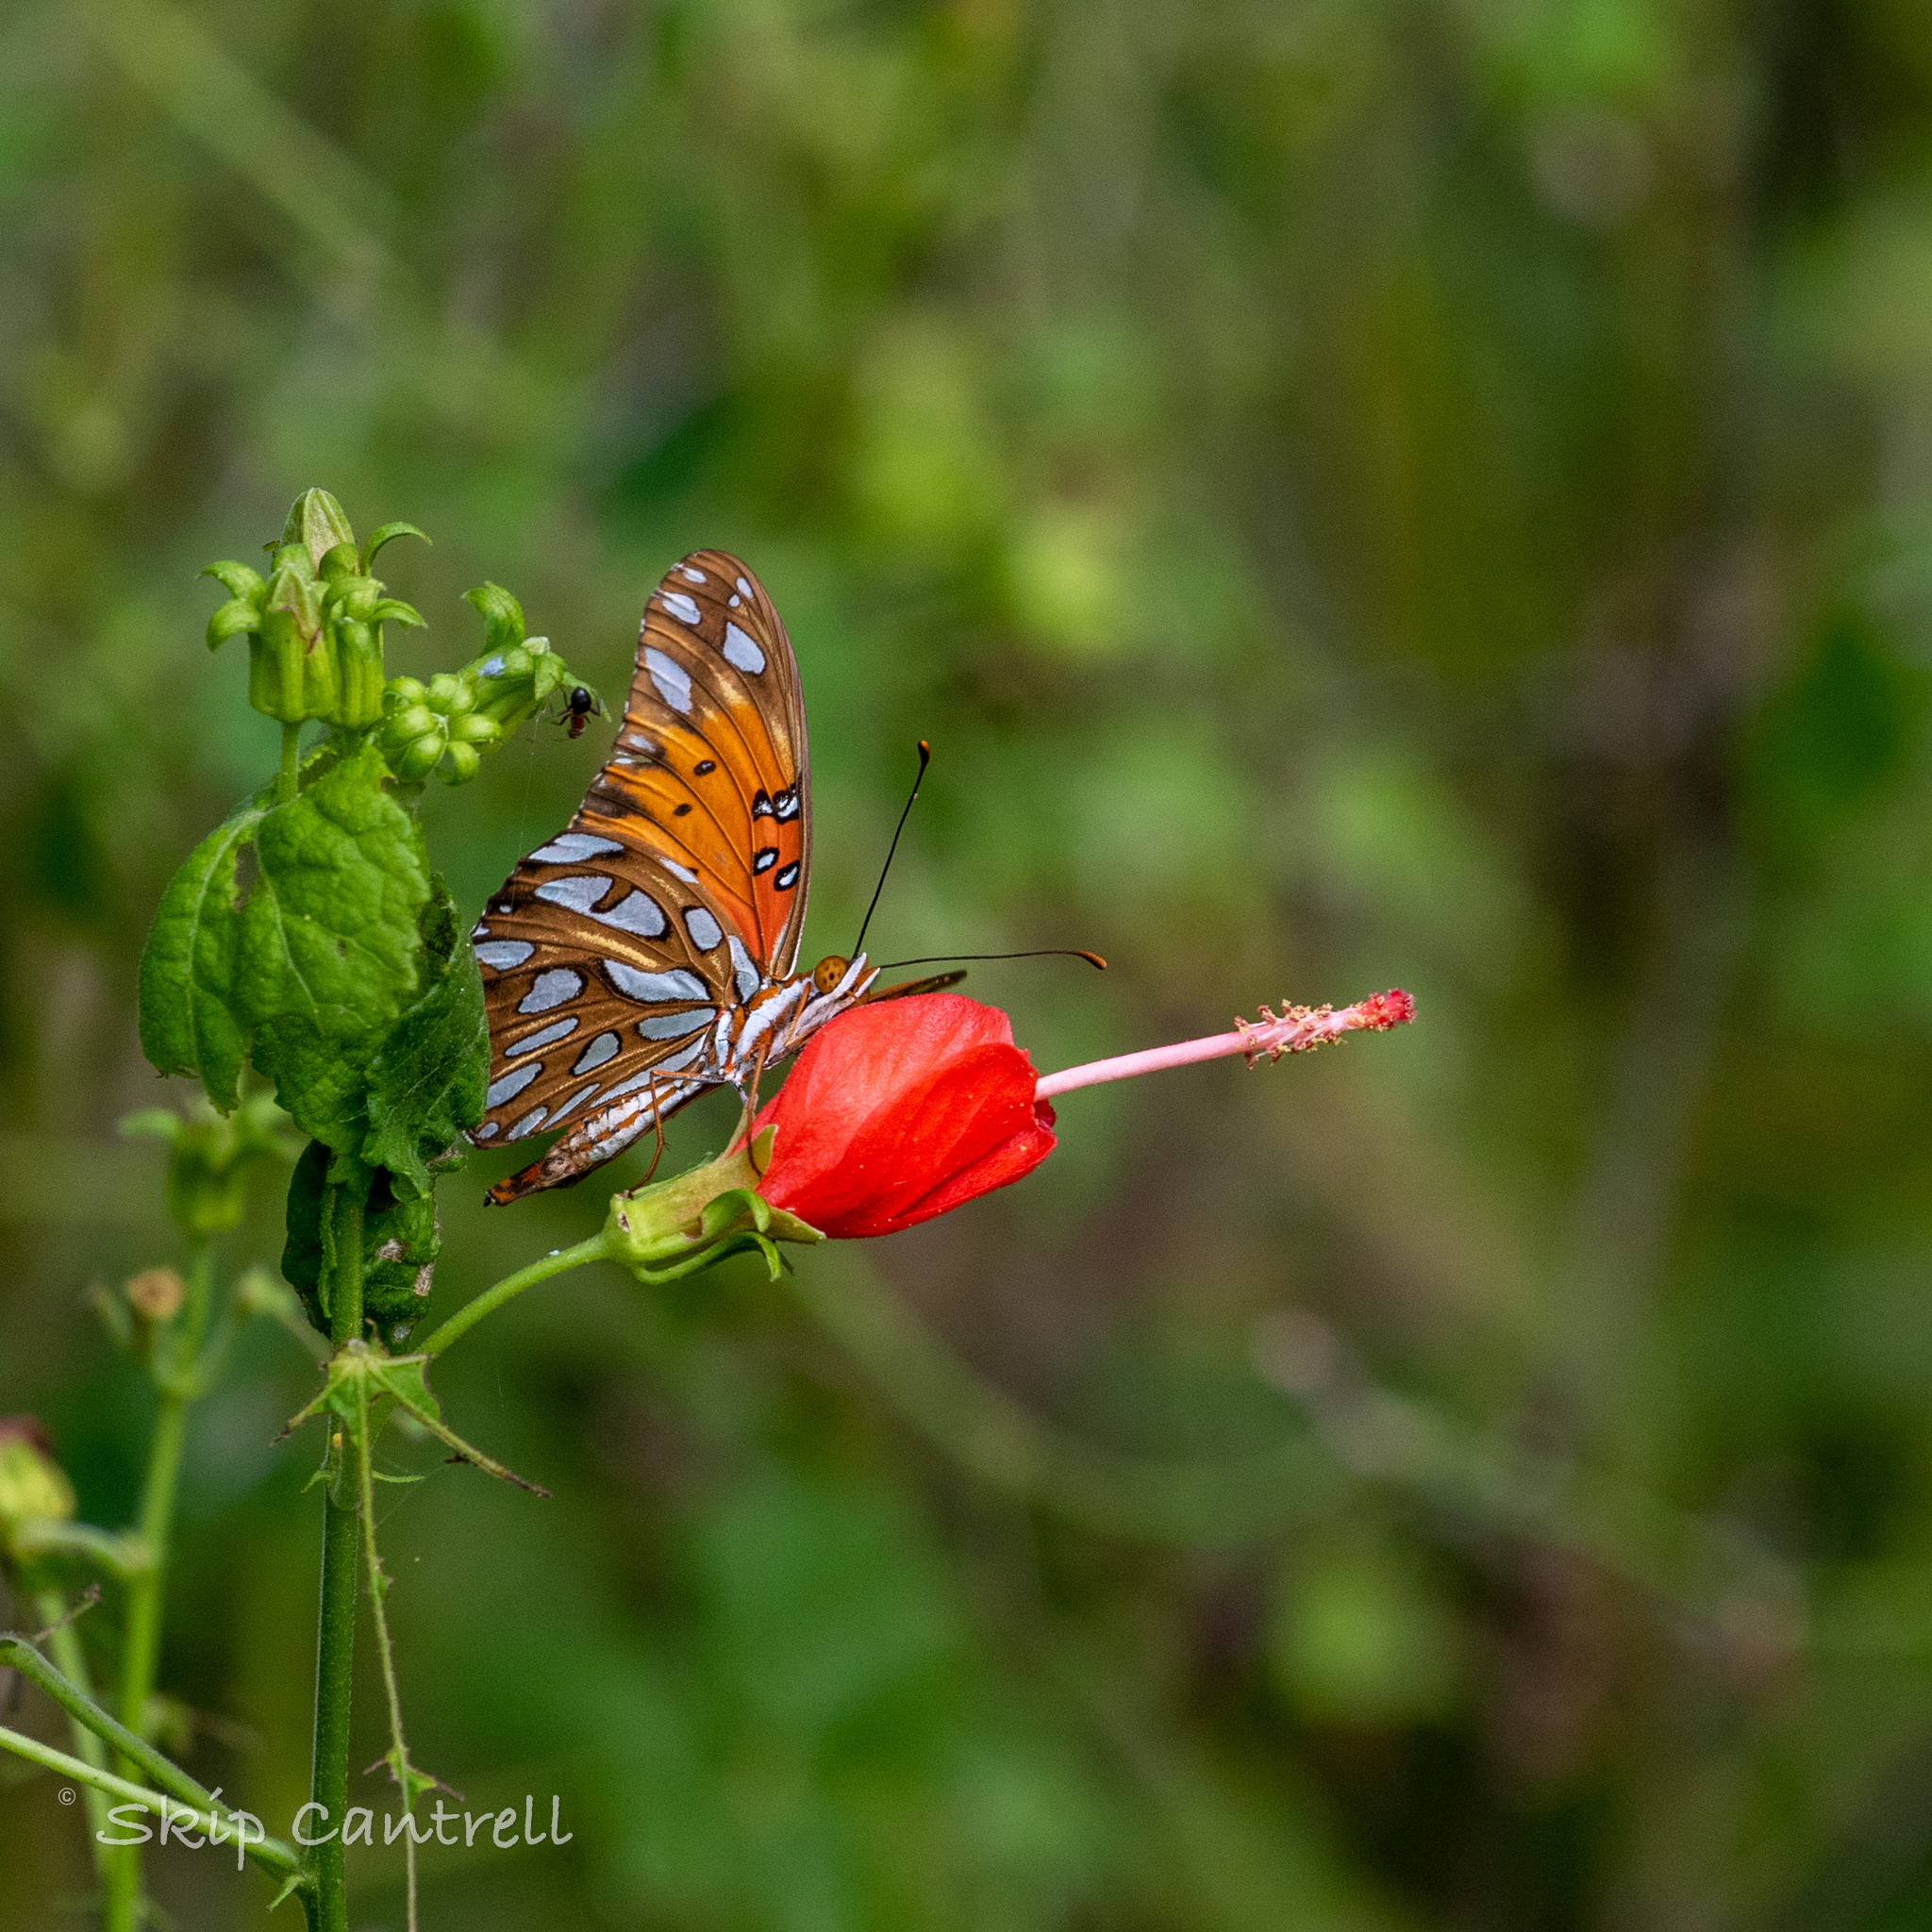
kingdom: Animalia
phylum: Arthropoda
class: Insecta
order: Lepidoptera
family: Nymphalidae
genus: Dione
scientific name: Dione vanillae
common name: Gulf fritillary
